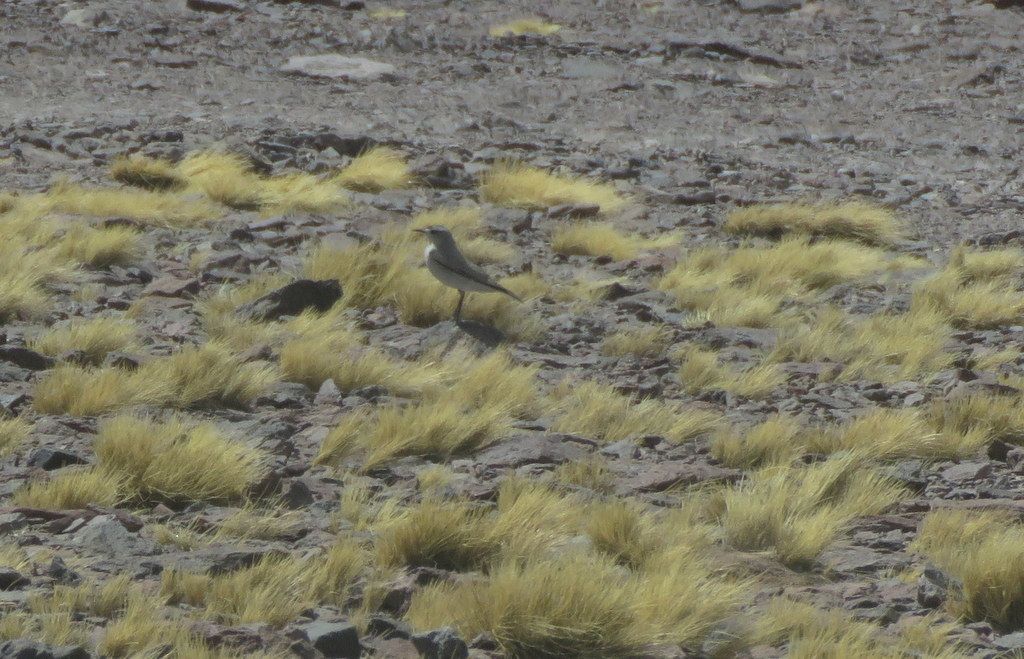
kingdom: Animalia
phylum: Chordata
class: Aves
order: Passeriformes
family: Tyrannidae
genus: Muscisaxicola
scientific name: Muscisaxicola frontalis
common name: Black-fronted ground tyrant
